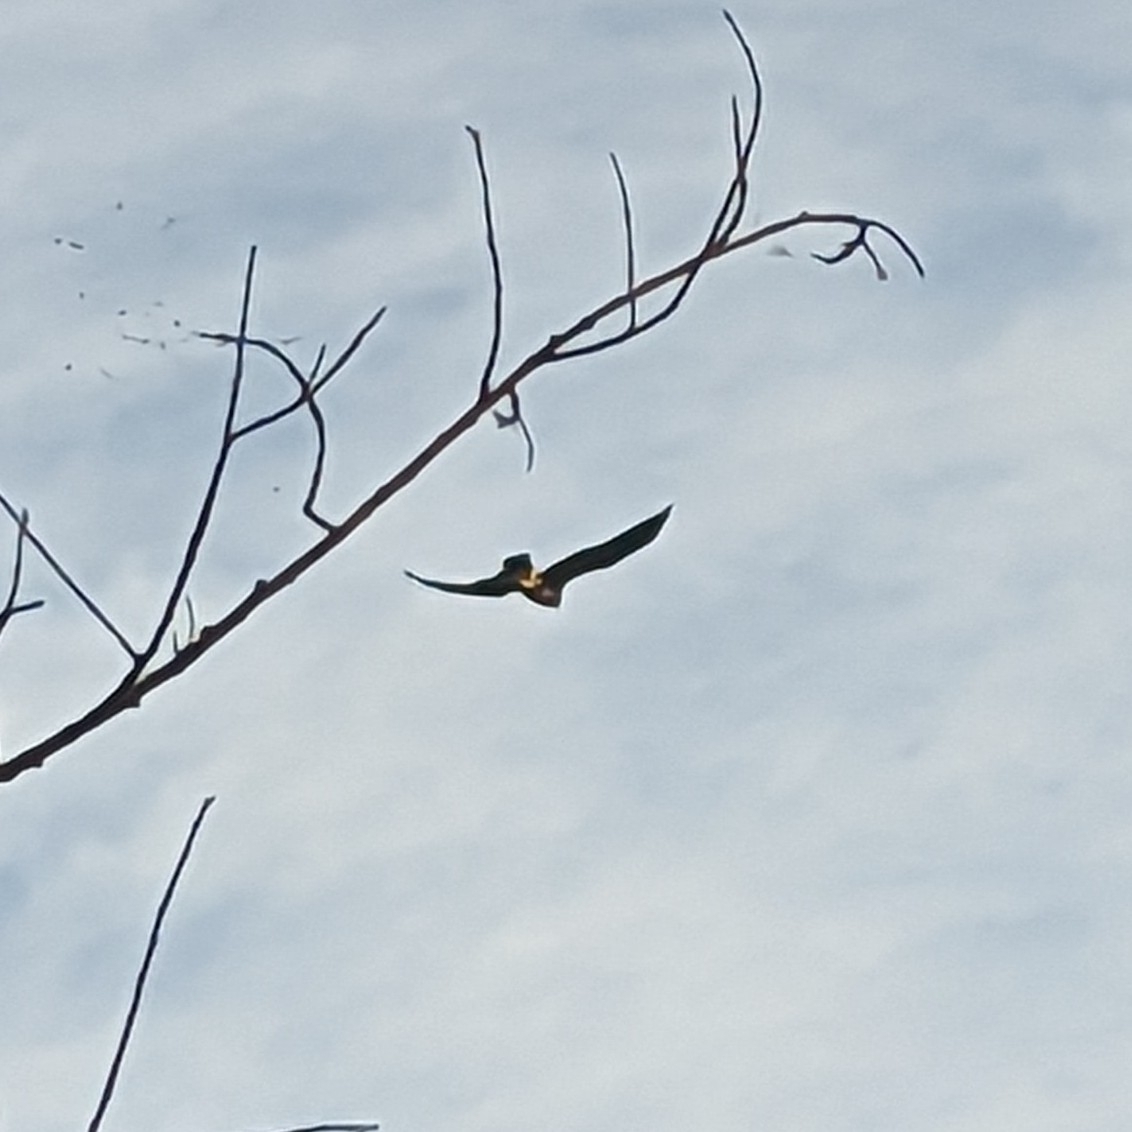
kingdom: Animalia
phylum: Chordata
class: Aves
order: Accipitriformes
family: Accipitridae
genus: Buteo
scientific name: Buteo swainsoni
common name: Swainson's hawk
